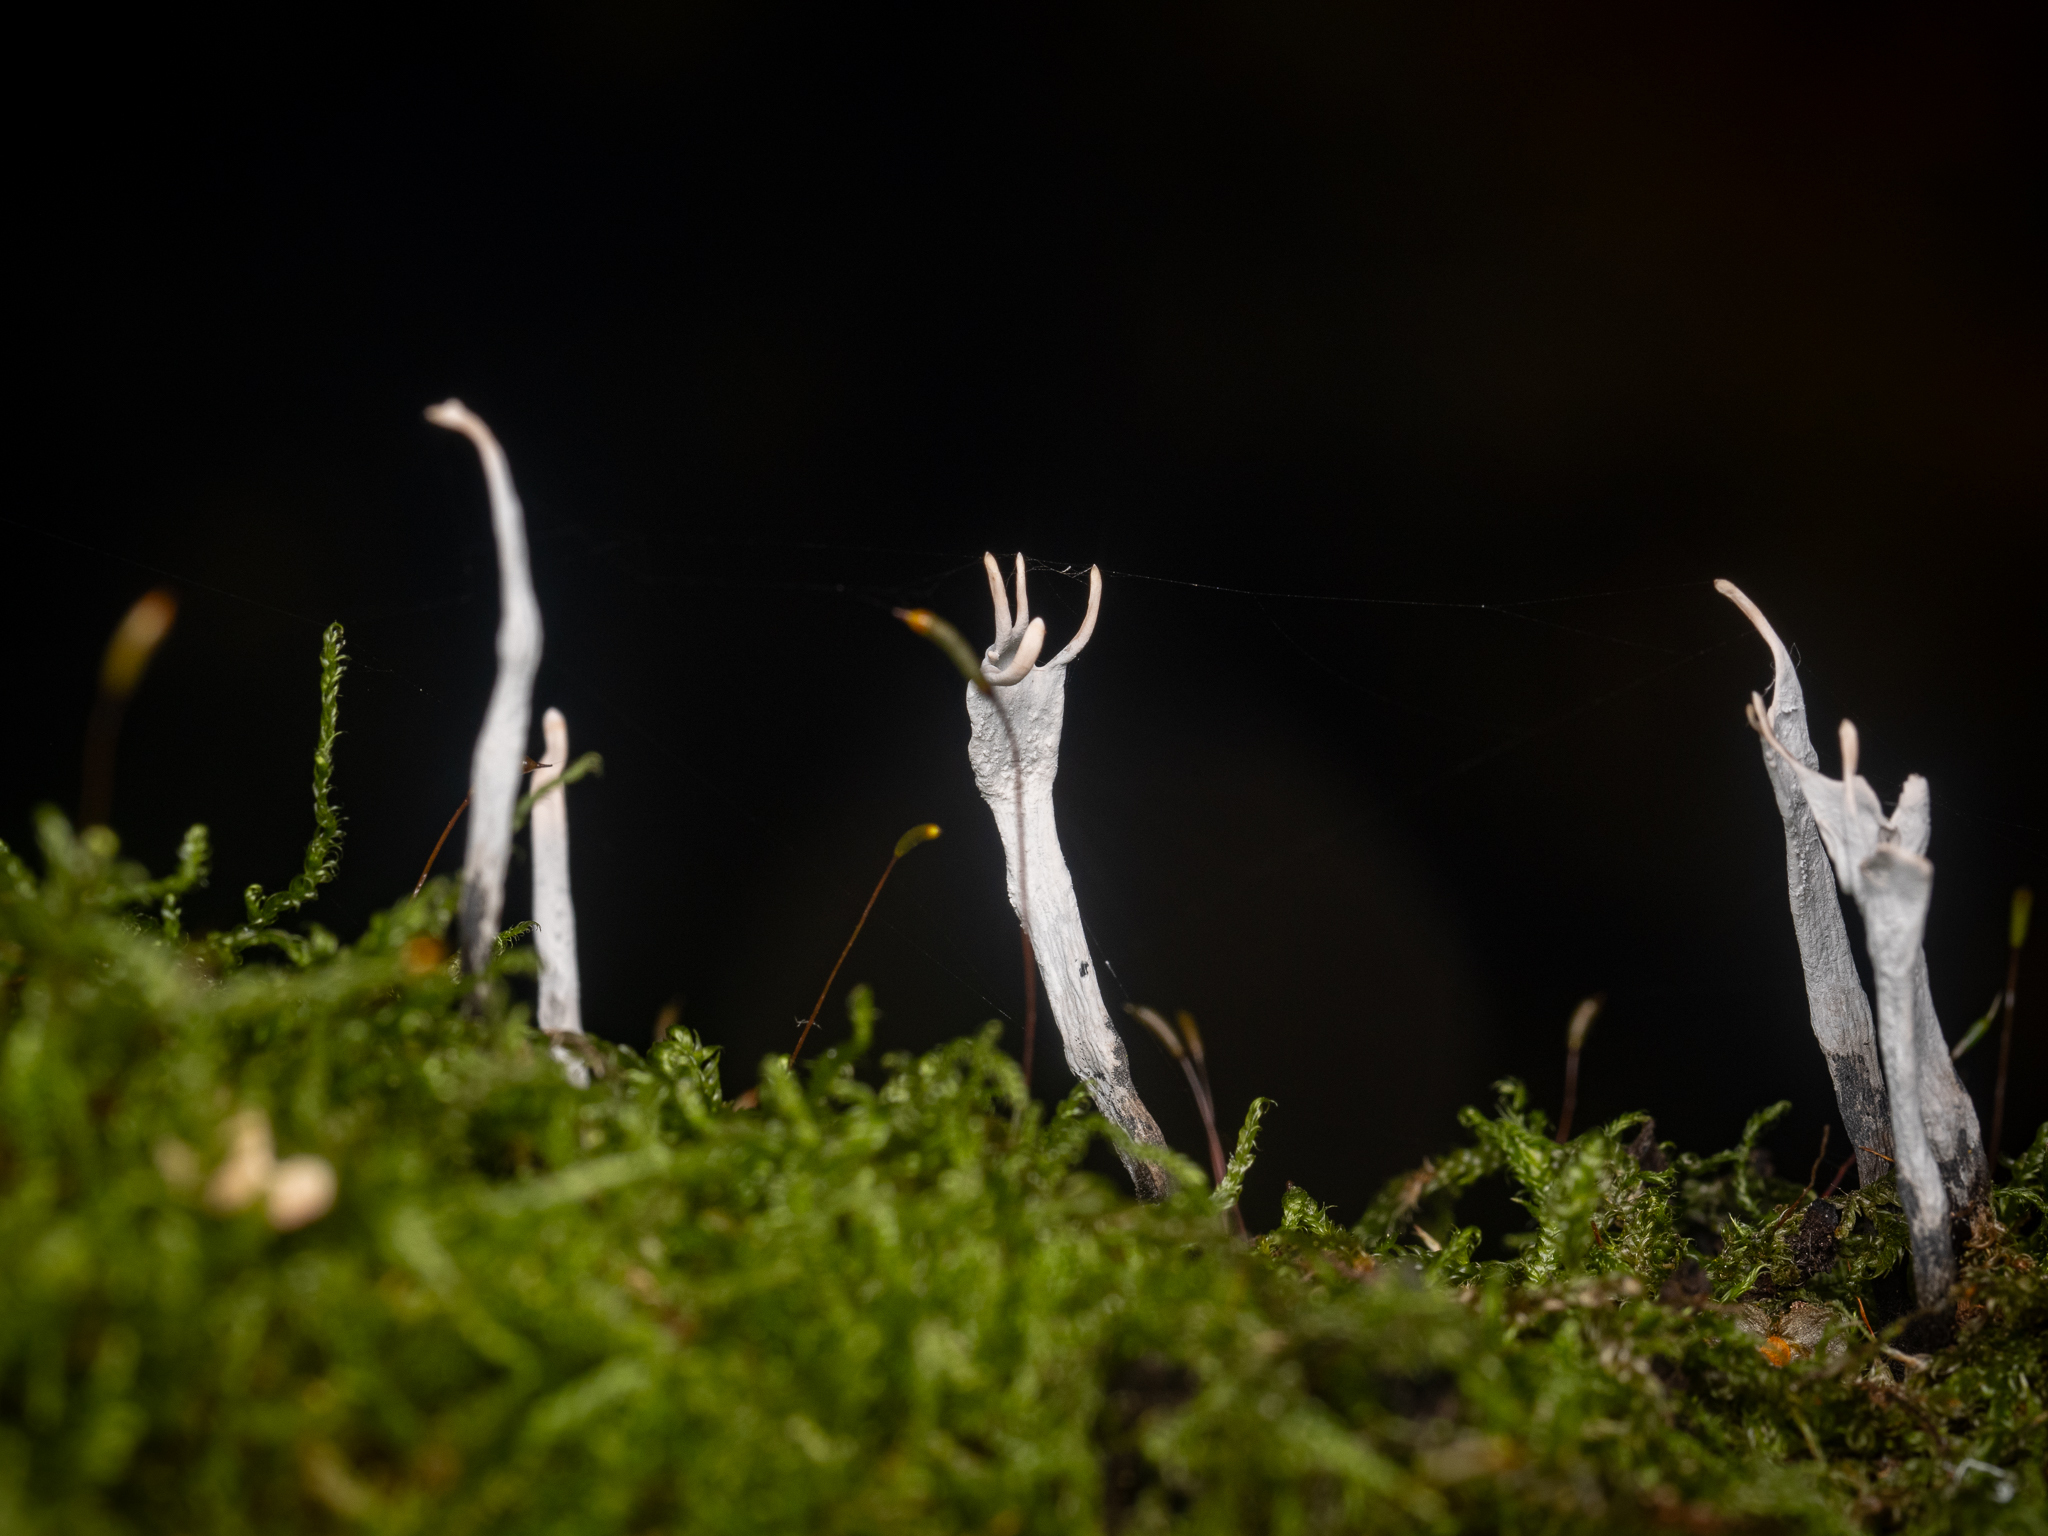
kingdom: Fungi
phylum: Ascomycota
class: Sordariomycetes
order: Xylariales
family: Xylariaceae
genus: Xylaria
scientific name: Xylaria hypoxylon
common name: Candle-snuff fungus
